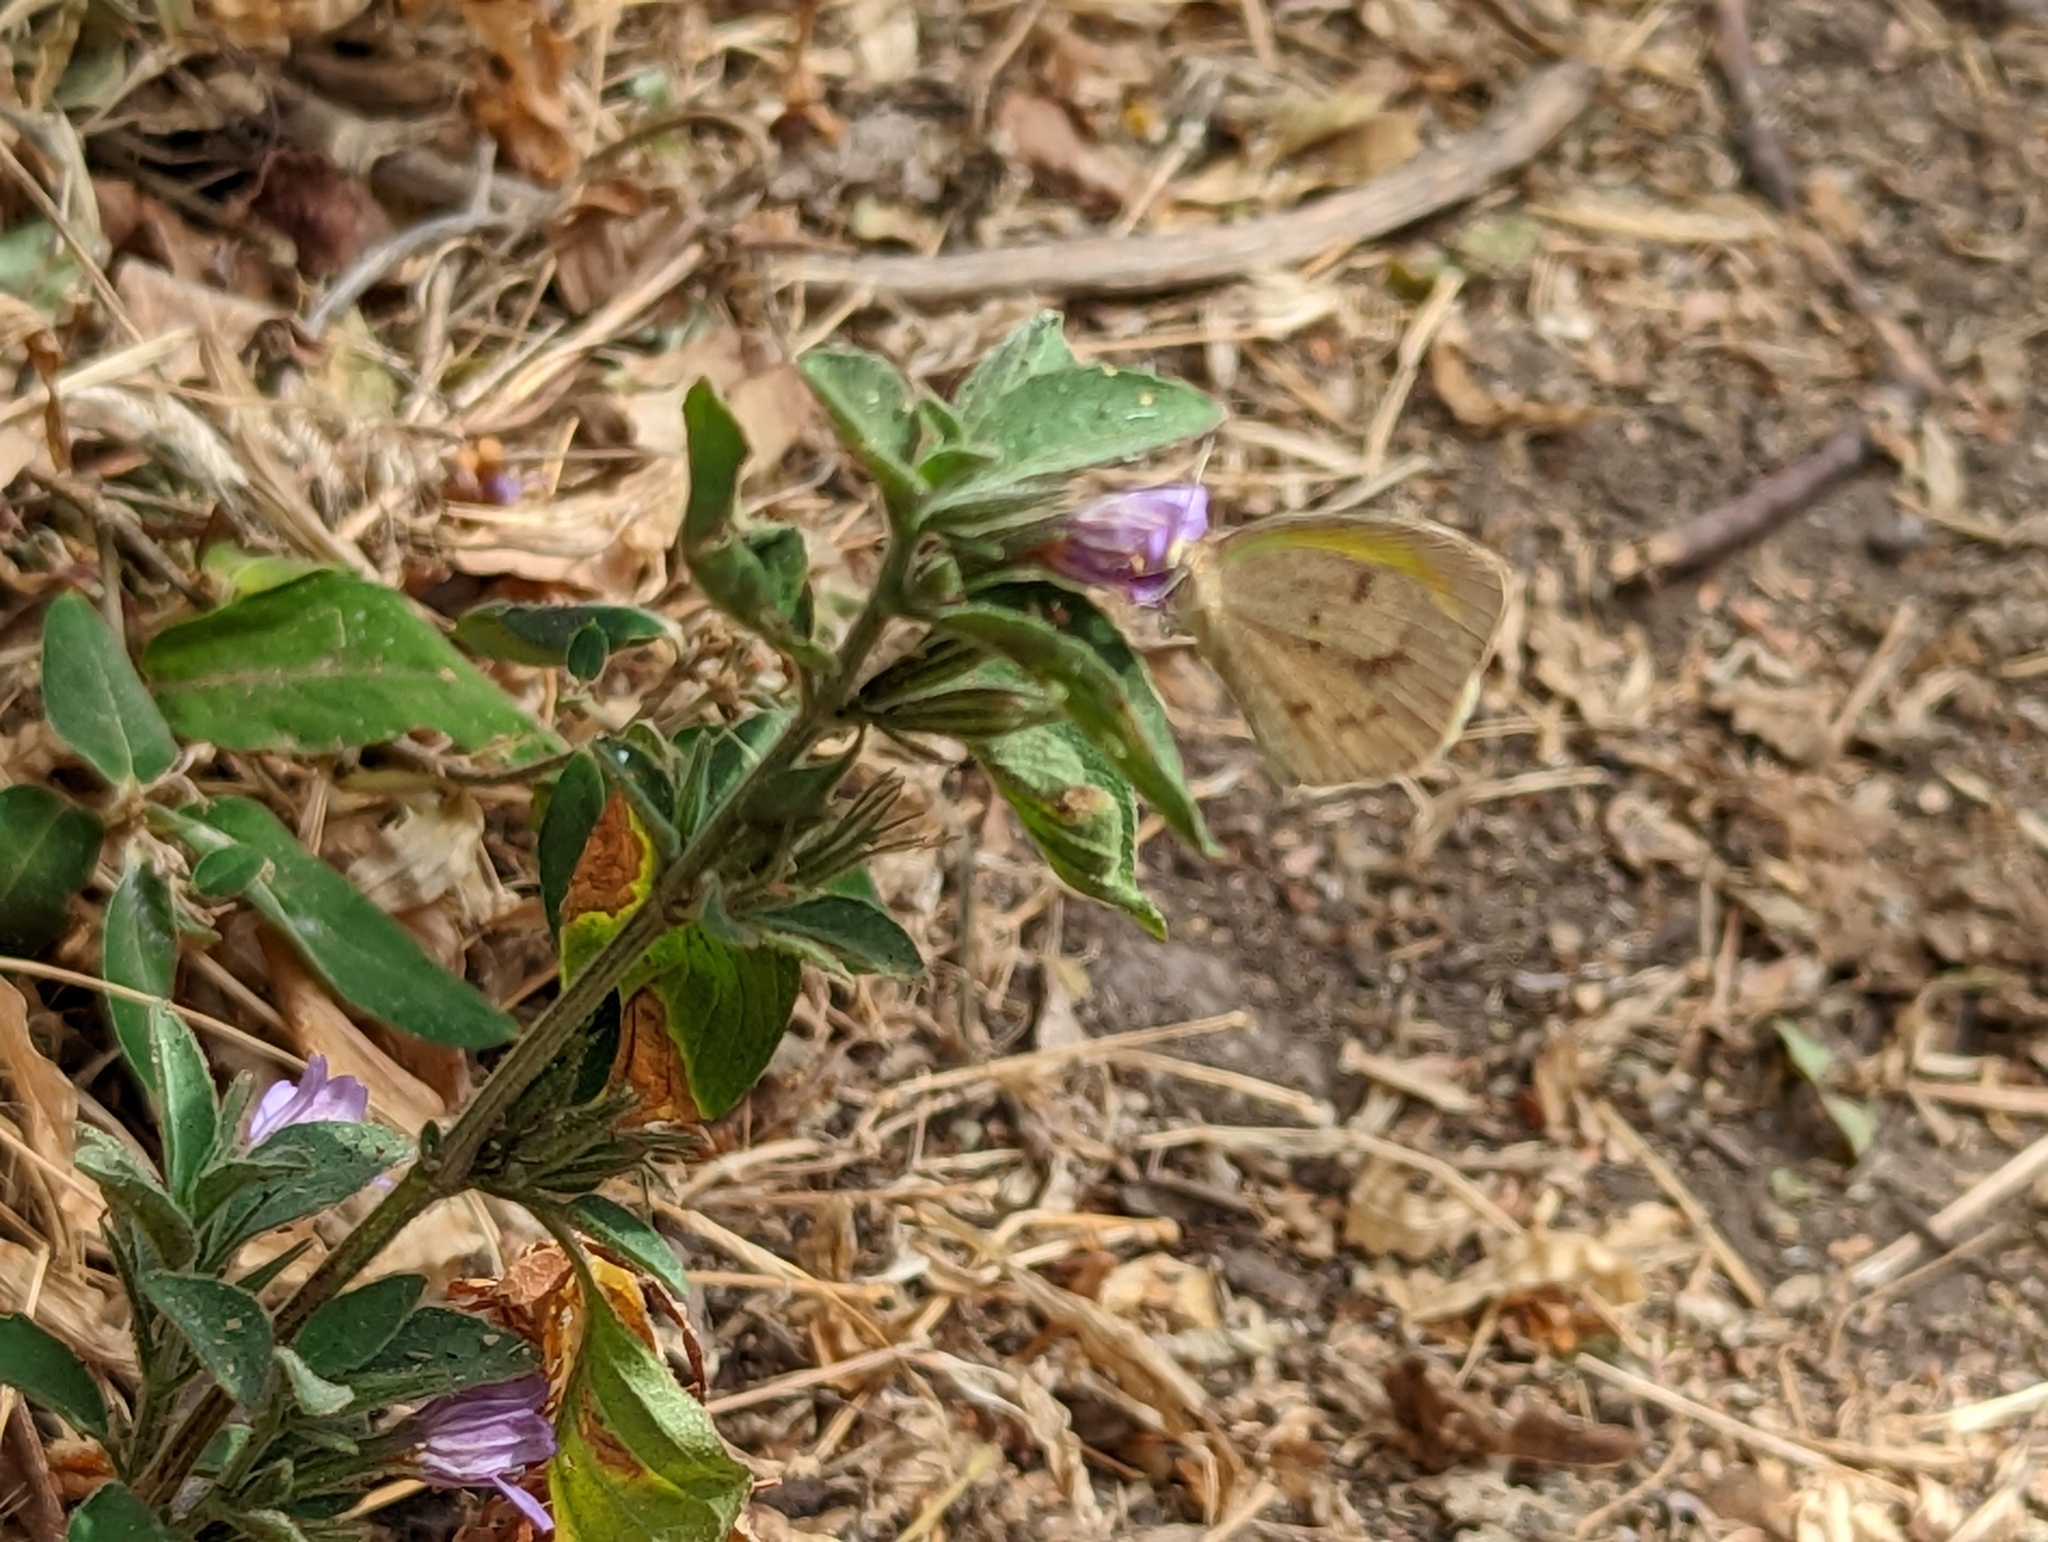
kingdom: Animalia
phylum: Arthropoda
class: Insecta
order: Lepidoptera
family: Pieridae
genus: Eurema
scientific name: Eurema daira
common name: Barred sulphur
